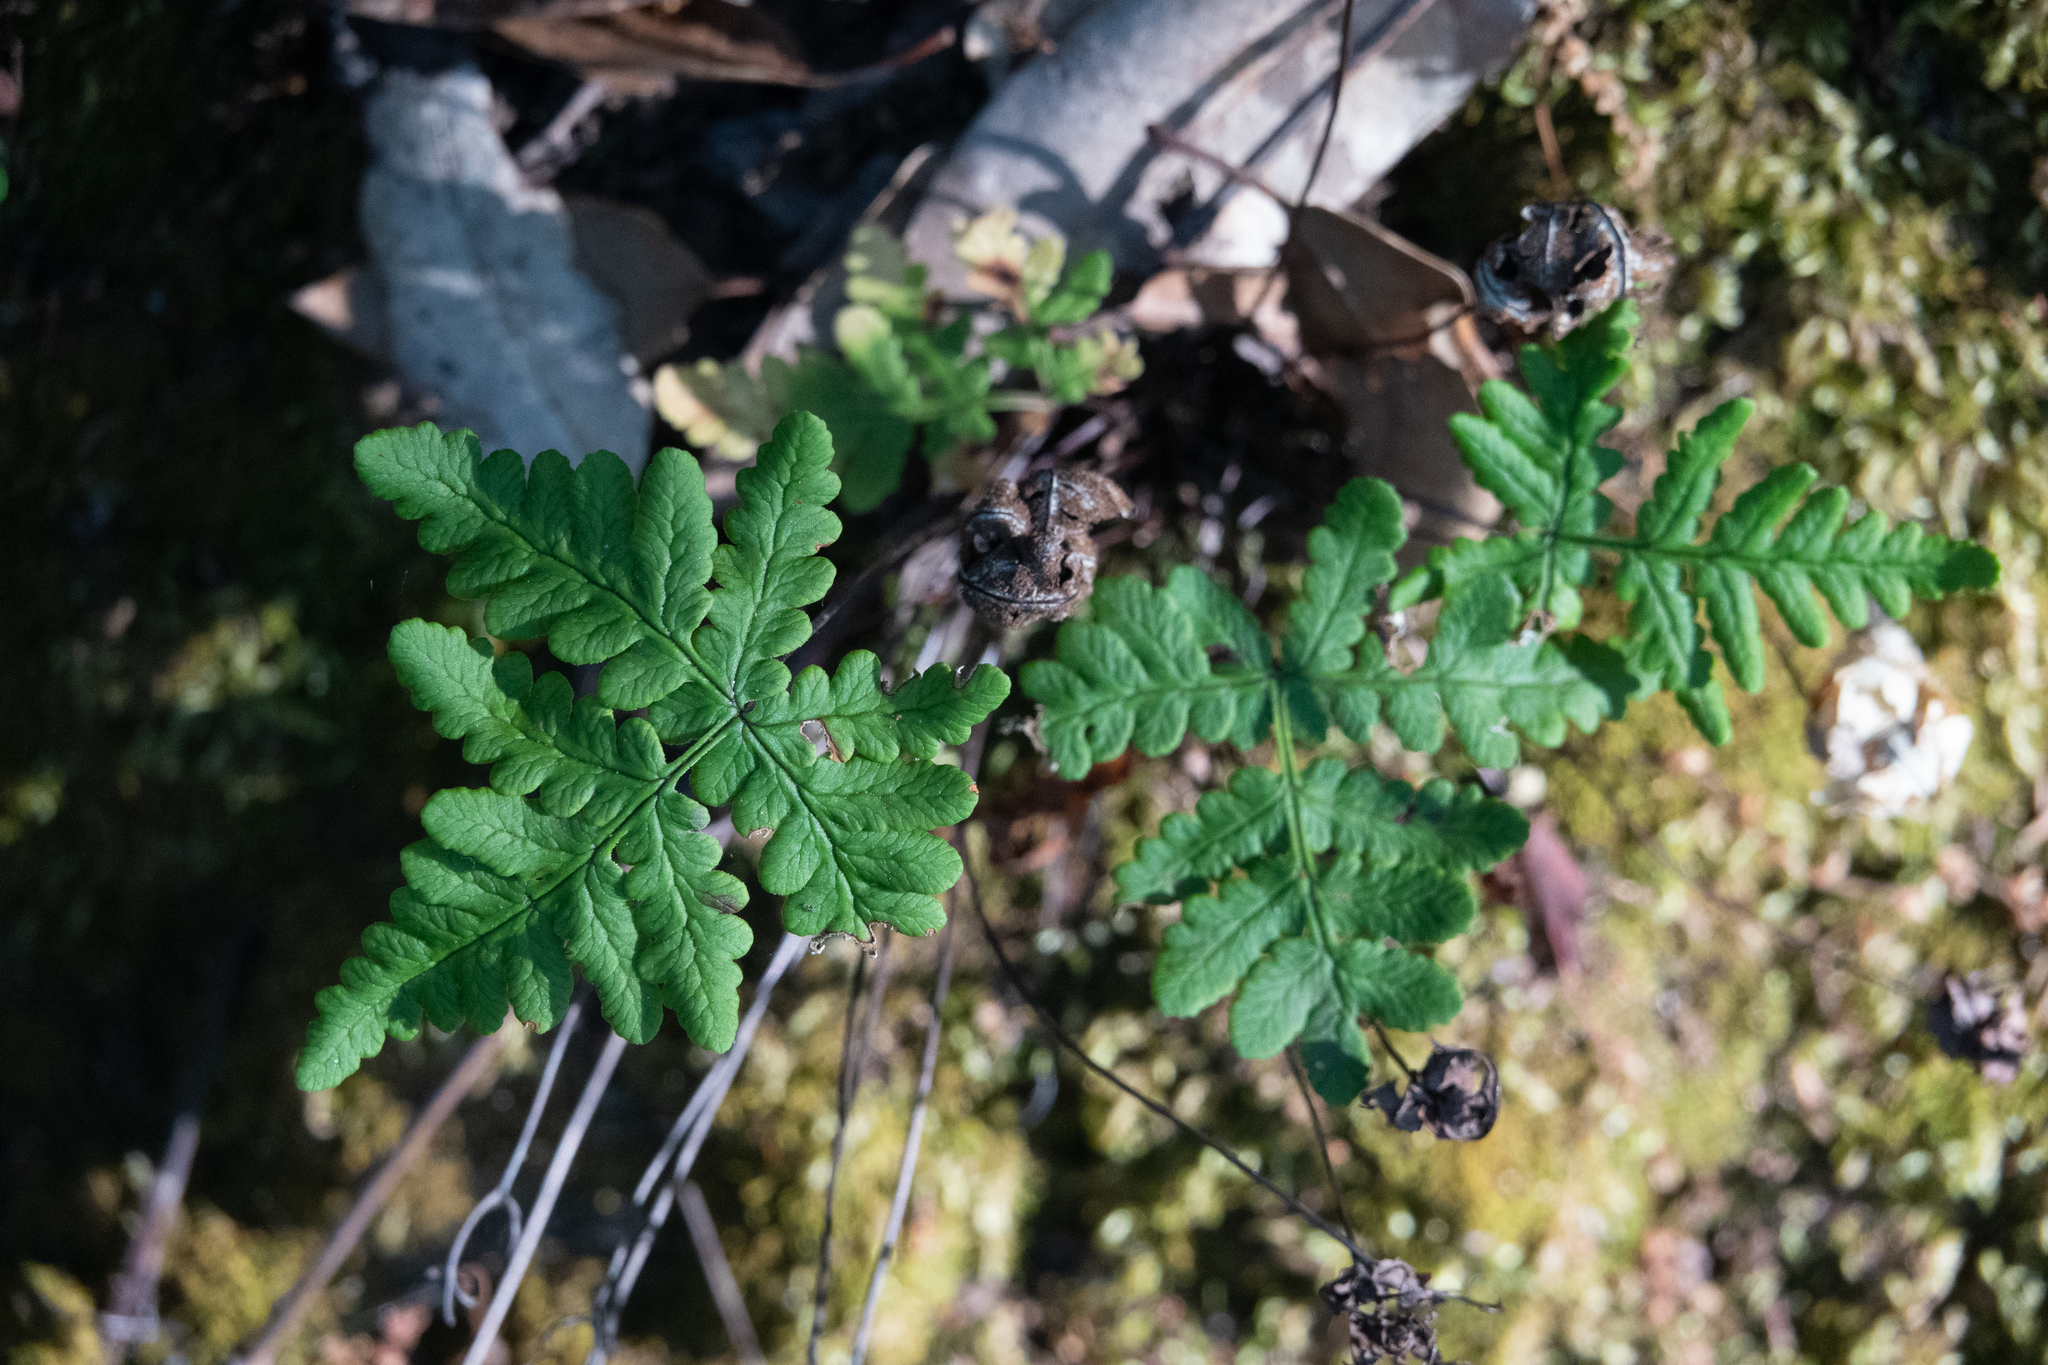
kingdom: Plantae
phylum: Tracheophyta
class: Polypodiopsida
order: Polypodiales
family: Pteridaceae
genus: Pentagramma
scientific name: Pentagramma triangularis
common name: Gold fern
